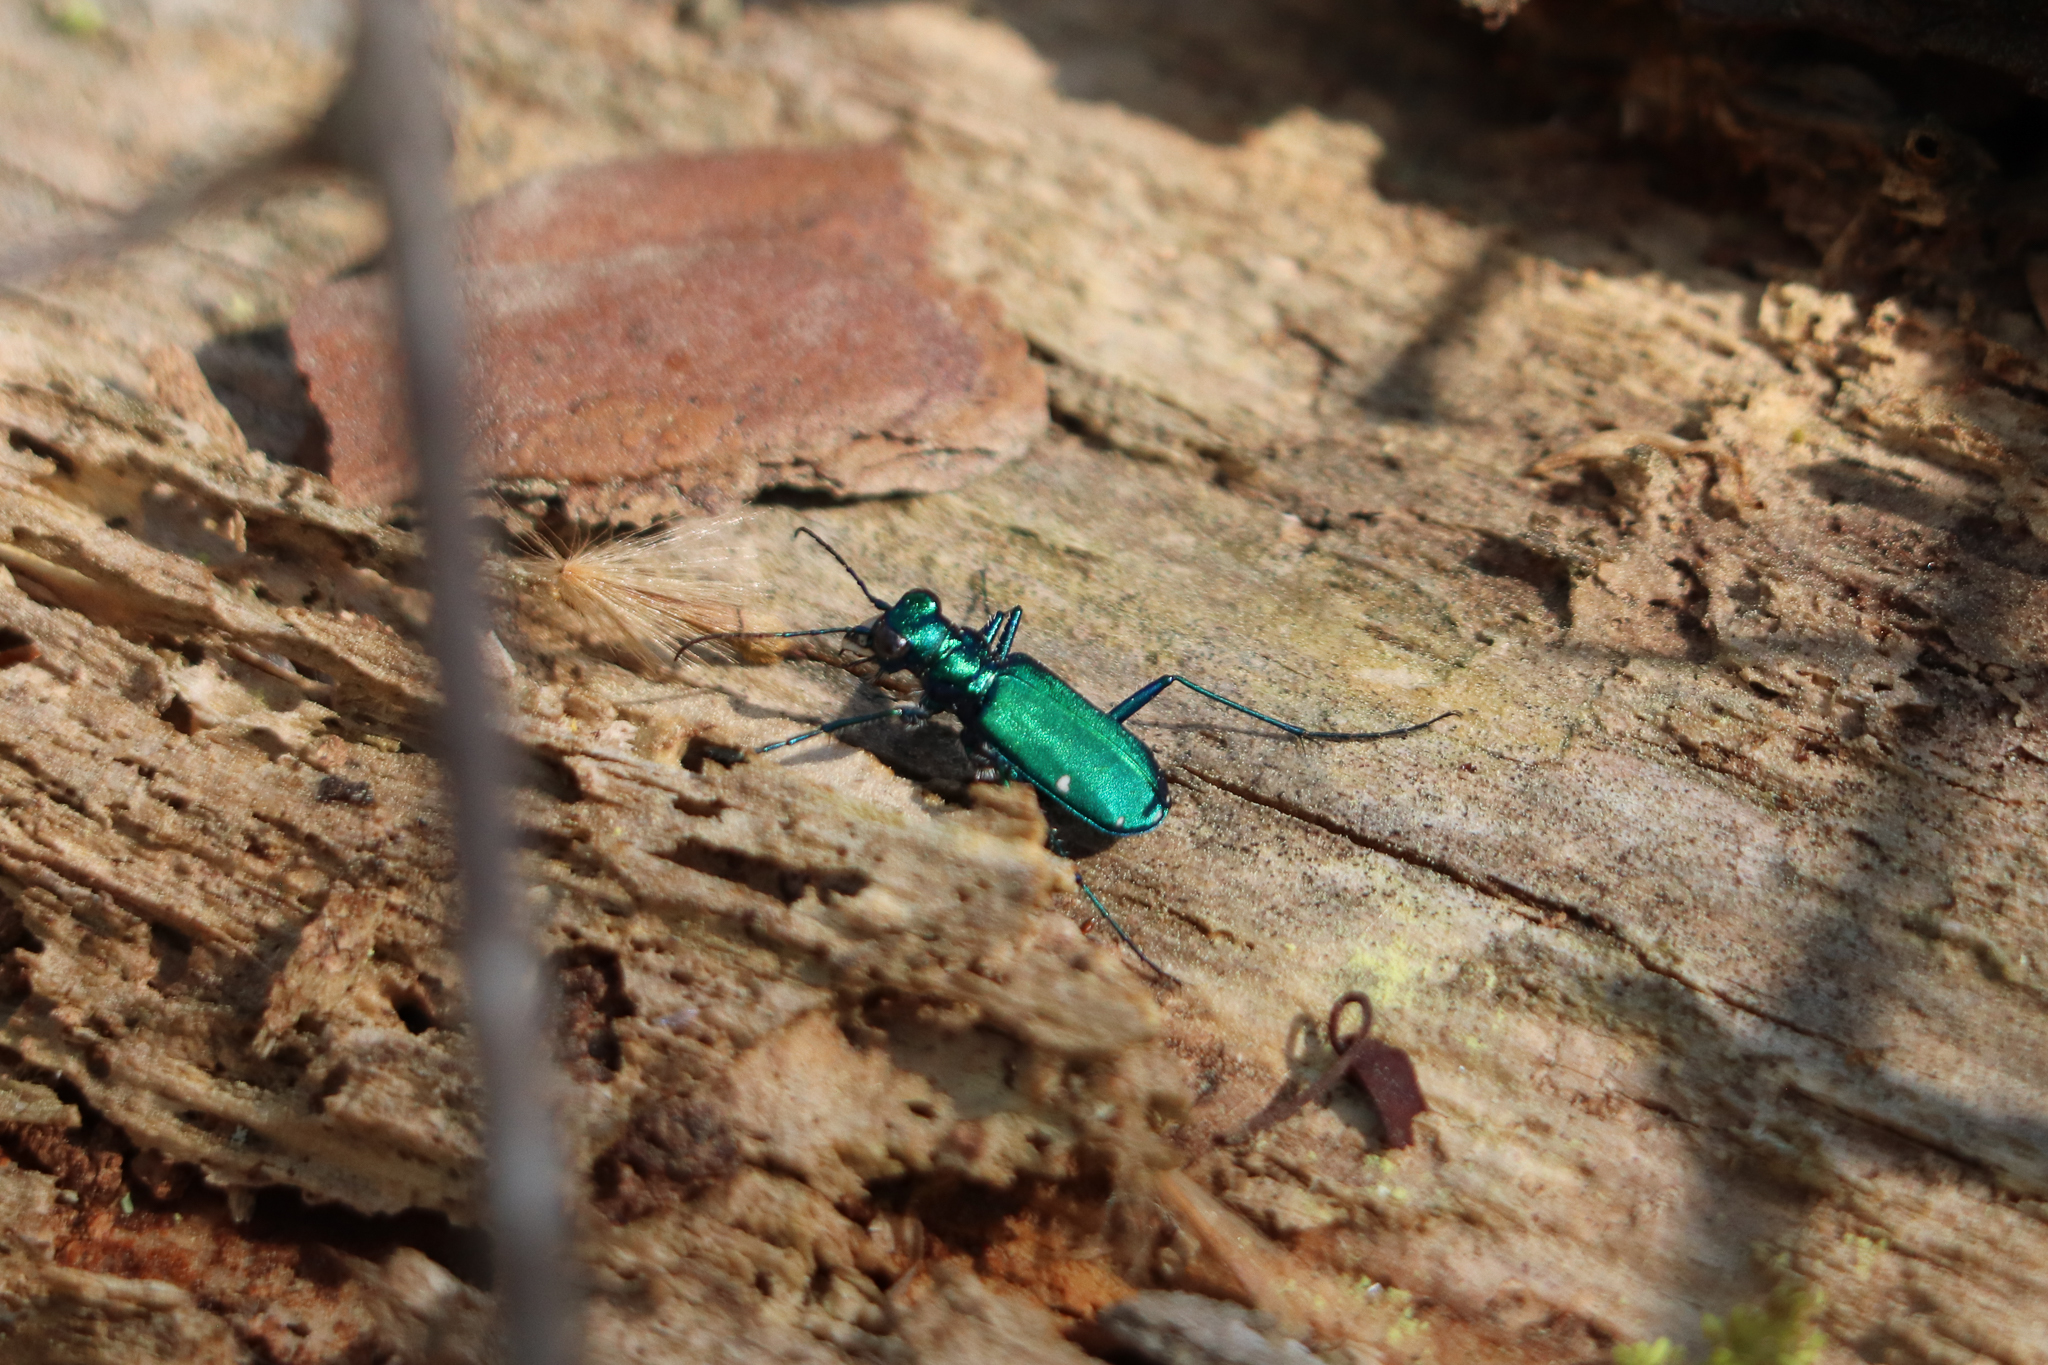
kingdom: Animalia
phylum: Arthropoda
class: Insecta
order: Coleoptera
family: Carabidae
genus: Cicindela
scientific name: Cicindela sexguttata
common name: Six-spotted tiger beetle
